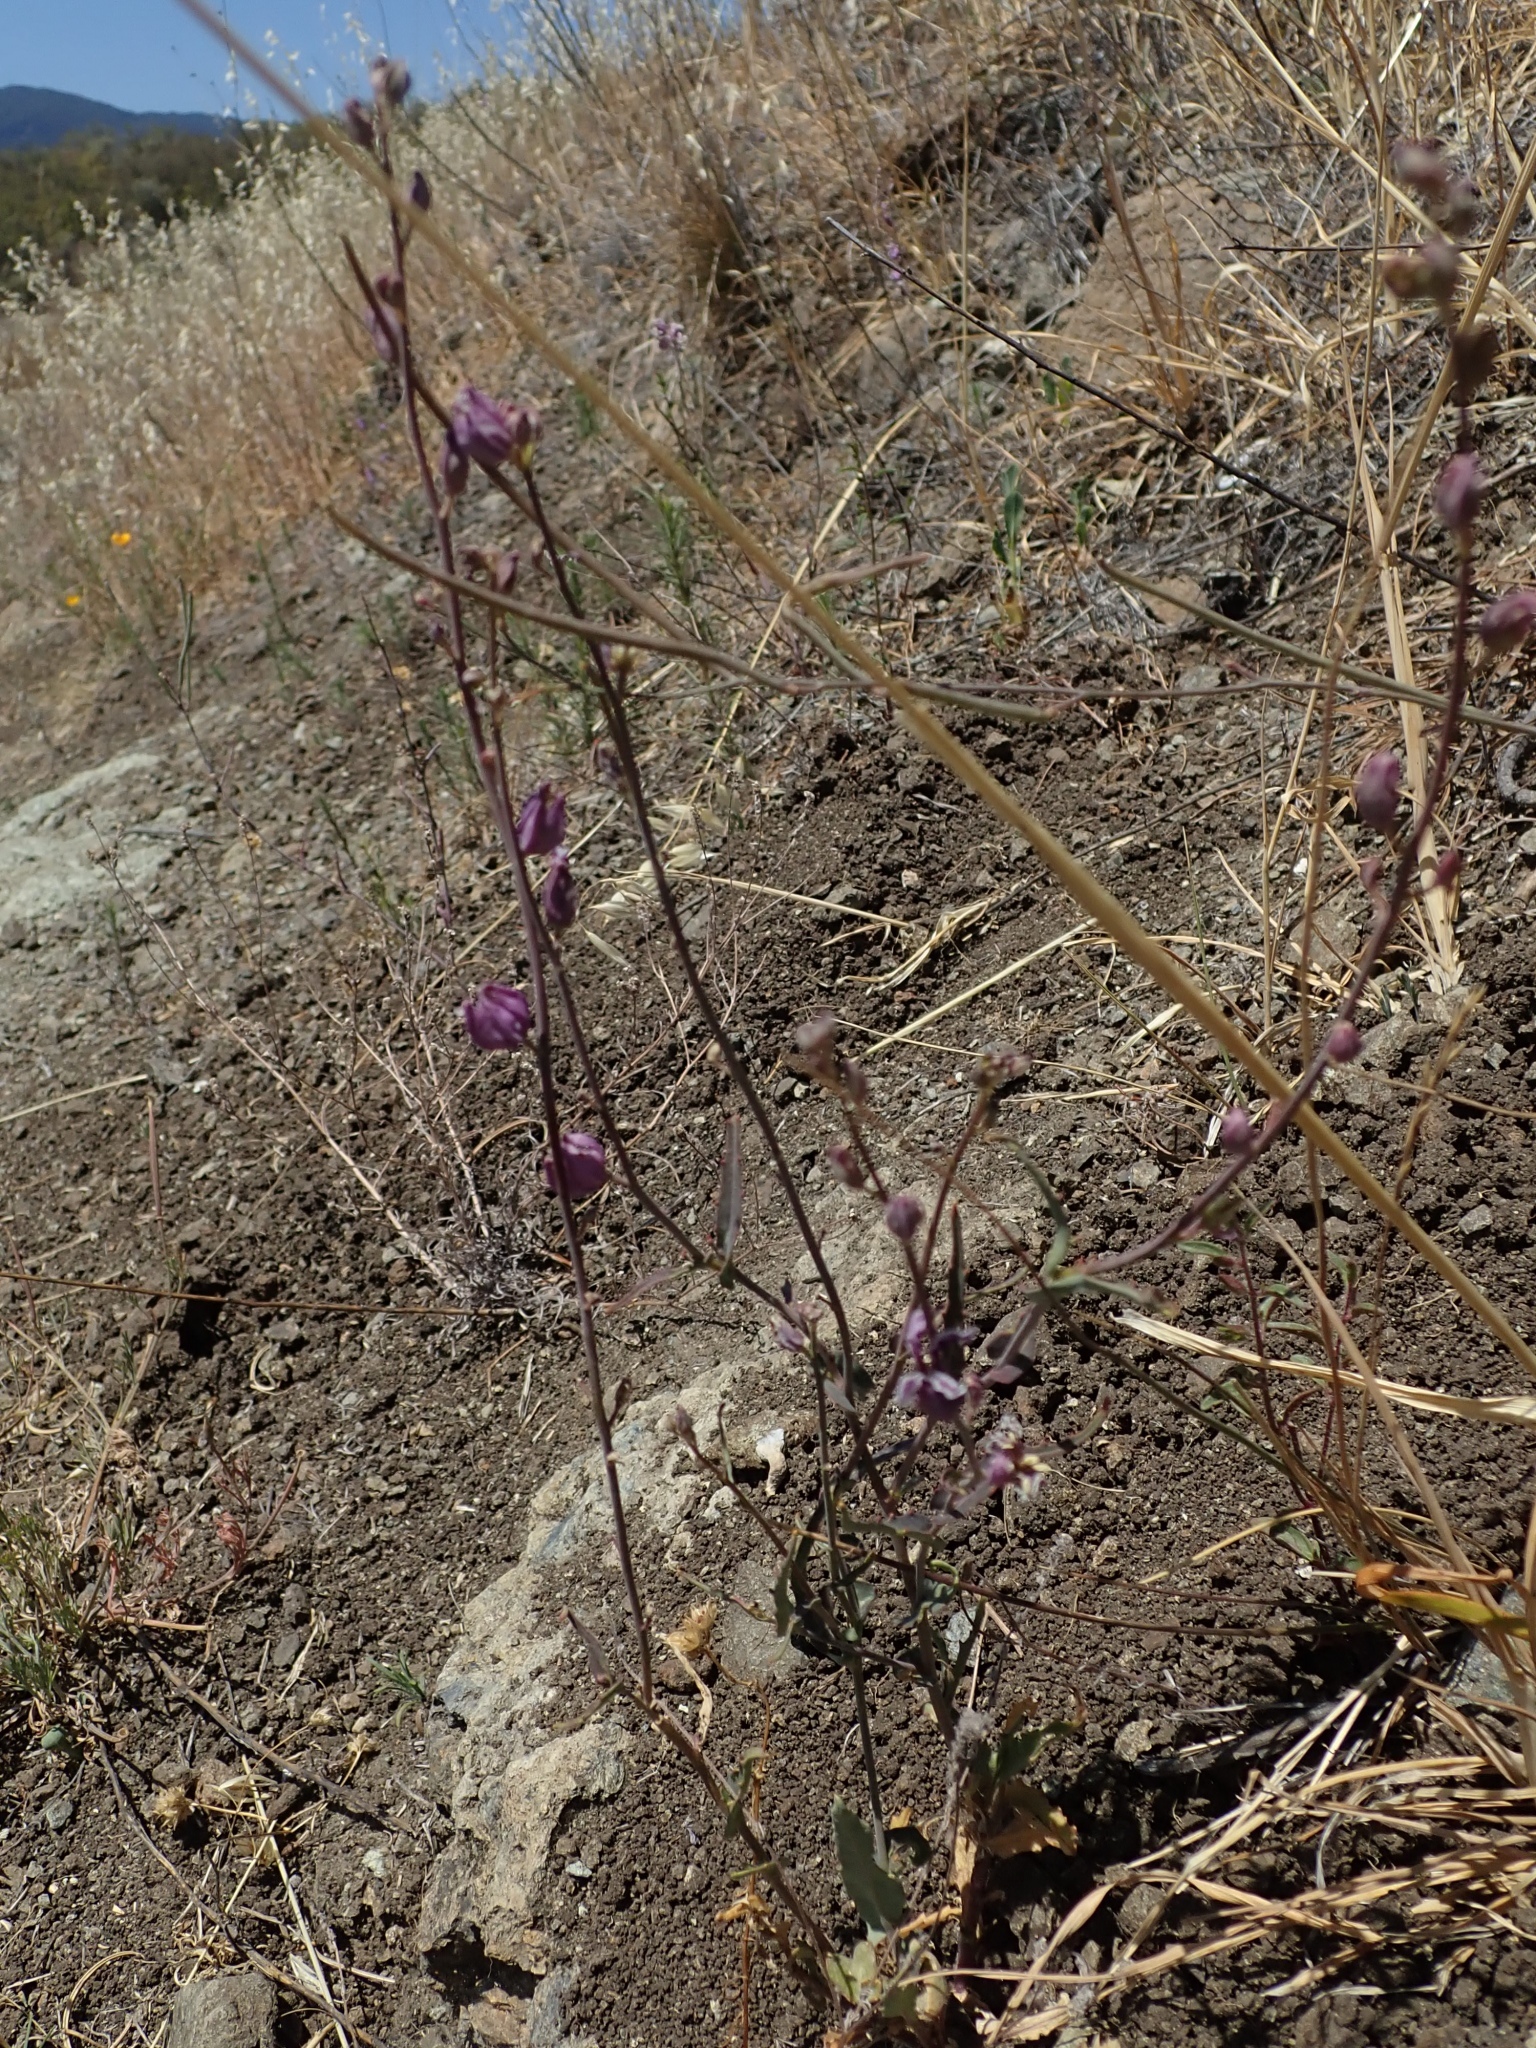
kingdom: Plantae
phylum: Tracheophyta
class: Magnoliopsida
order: Brassicales
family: Brassicaceae
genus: Streptanthus
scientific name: Streptanthus glandulosus
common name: Jewel-flower
